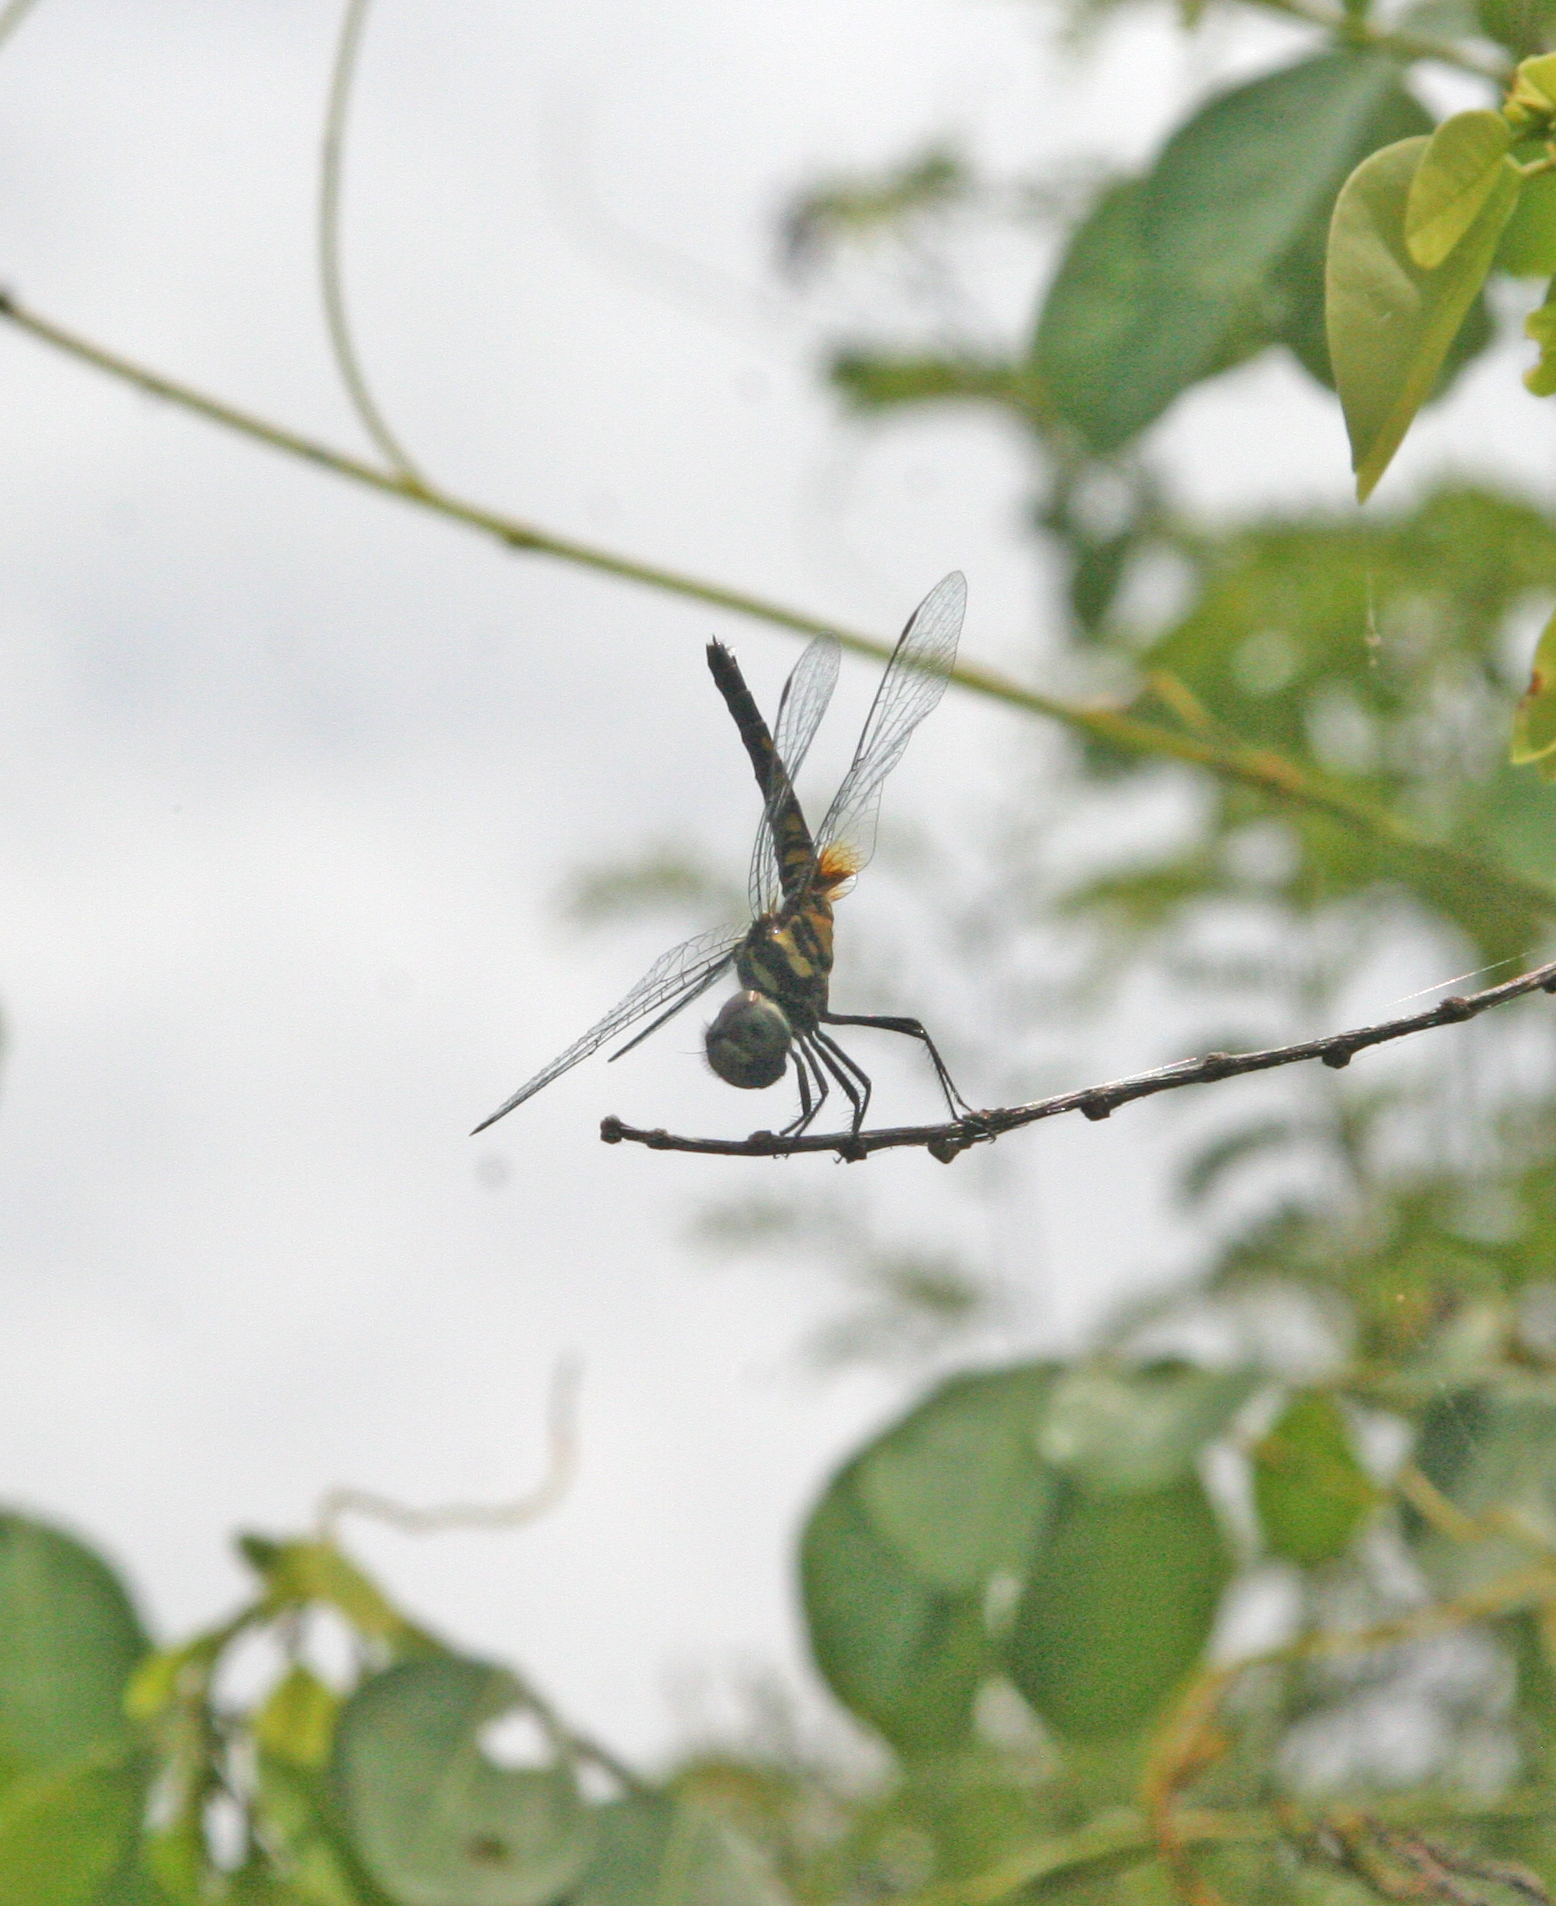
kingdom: Animalia
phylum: Arthropoda
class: Insecta
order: Odonata
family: Libellulidae
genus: Aethriamanta
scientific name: Aethriamanta aethra
